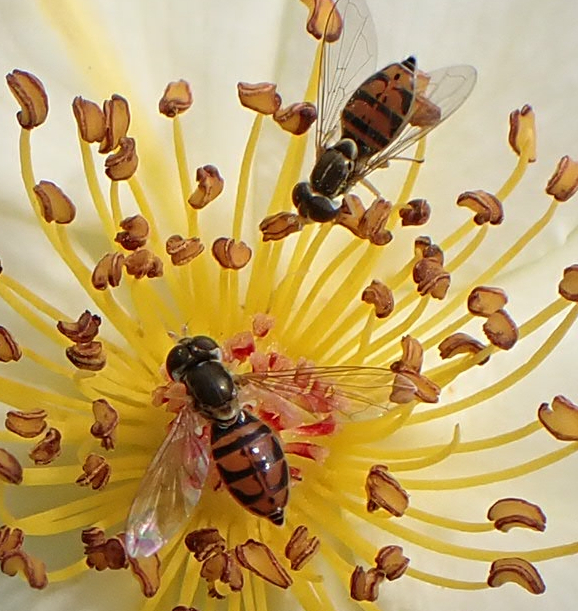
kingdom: Animalia
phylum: Arthropoda
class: Insecta
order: Diptera
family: Syrphidae
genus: Toxomerus
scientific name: Toxomerus marginatus
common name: Syrphid fly
